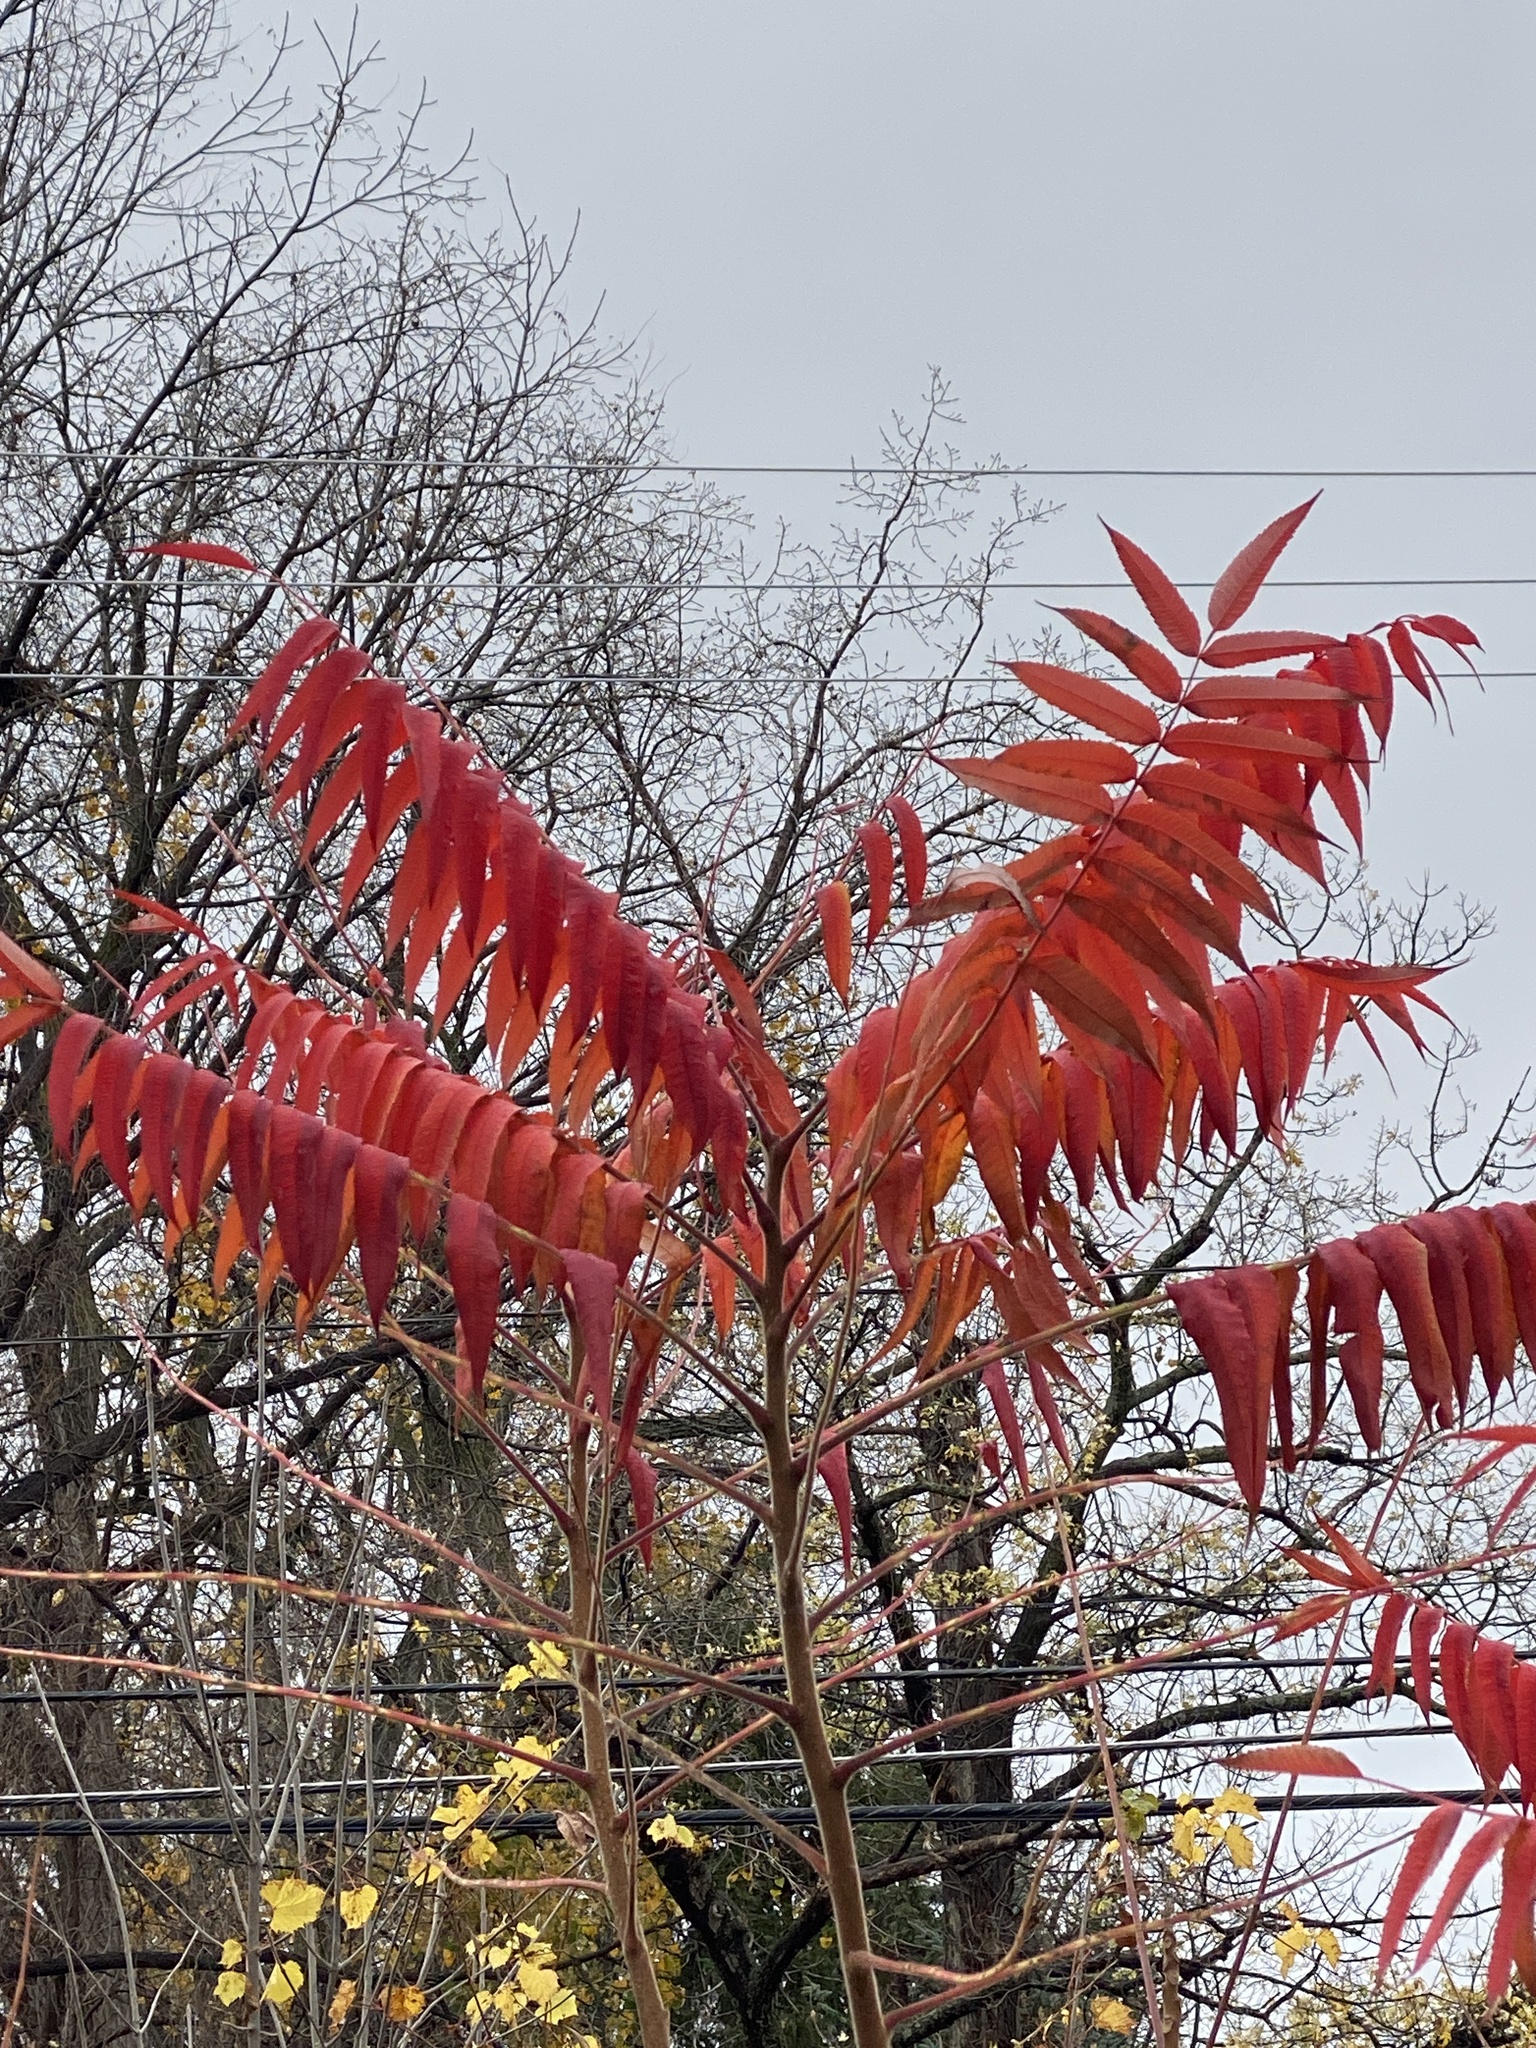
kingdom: Plantae
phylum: Tracheophyta
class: Magnoliopsida
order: Sapindales
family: Anacardiaceae
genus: Rhus
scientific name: Rhus typhina
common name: Staghorn sumac
